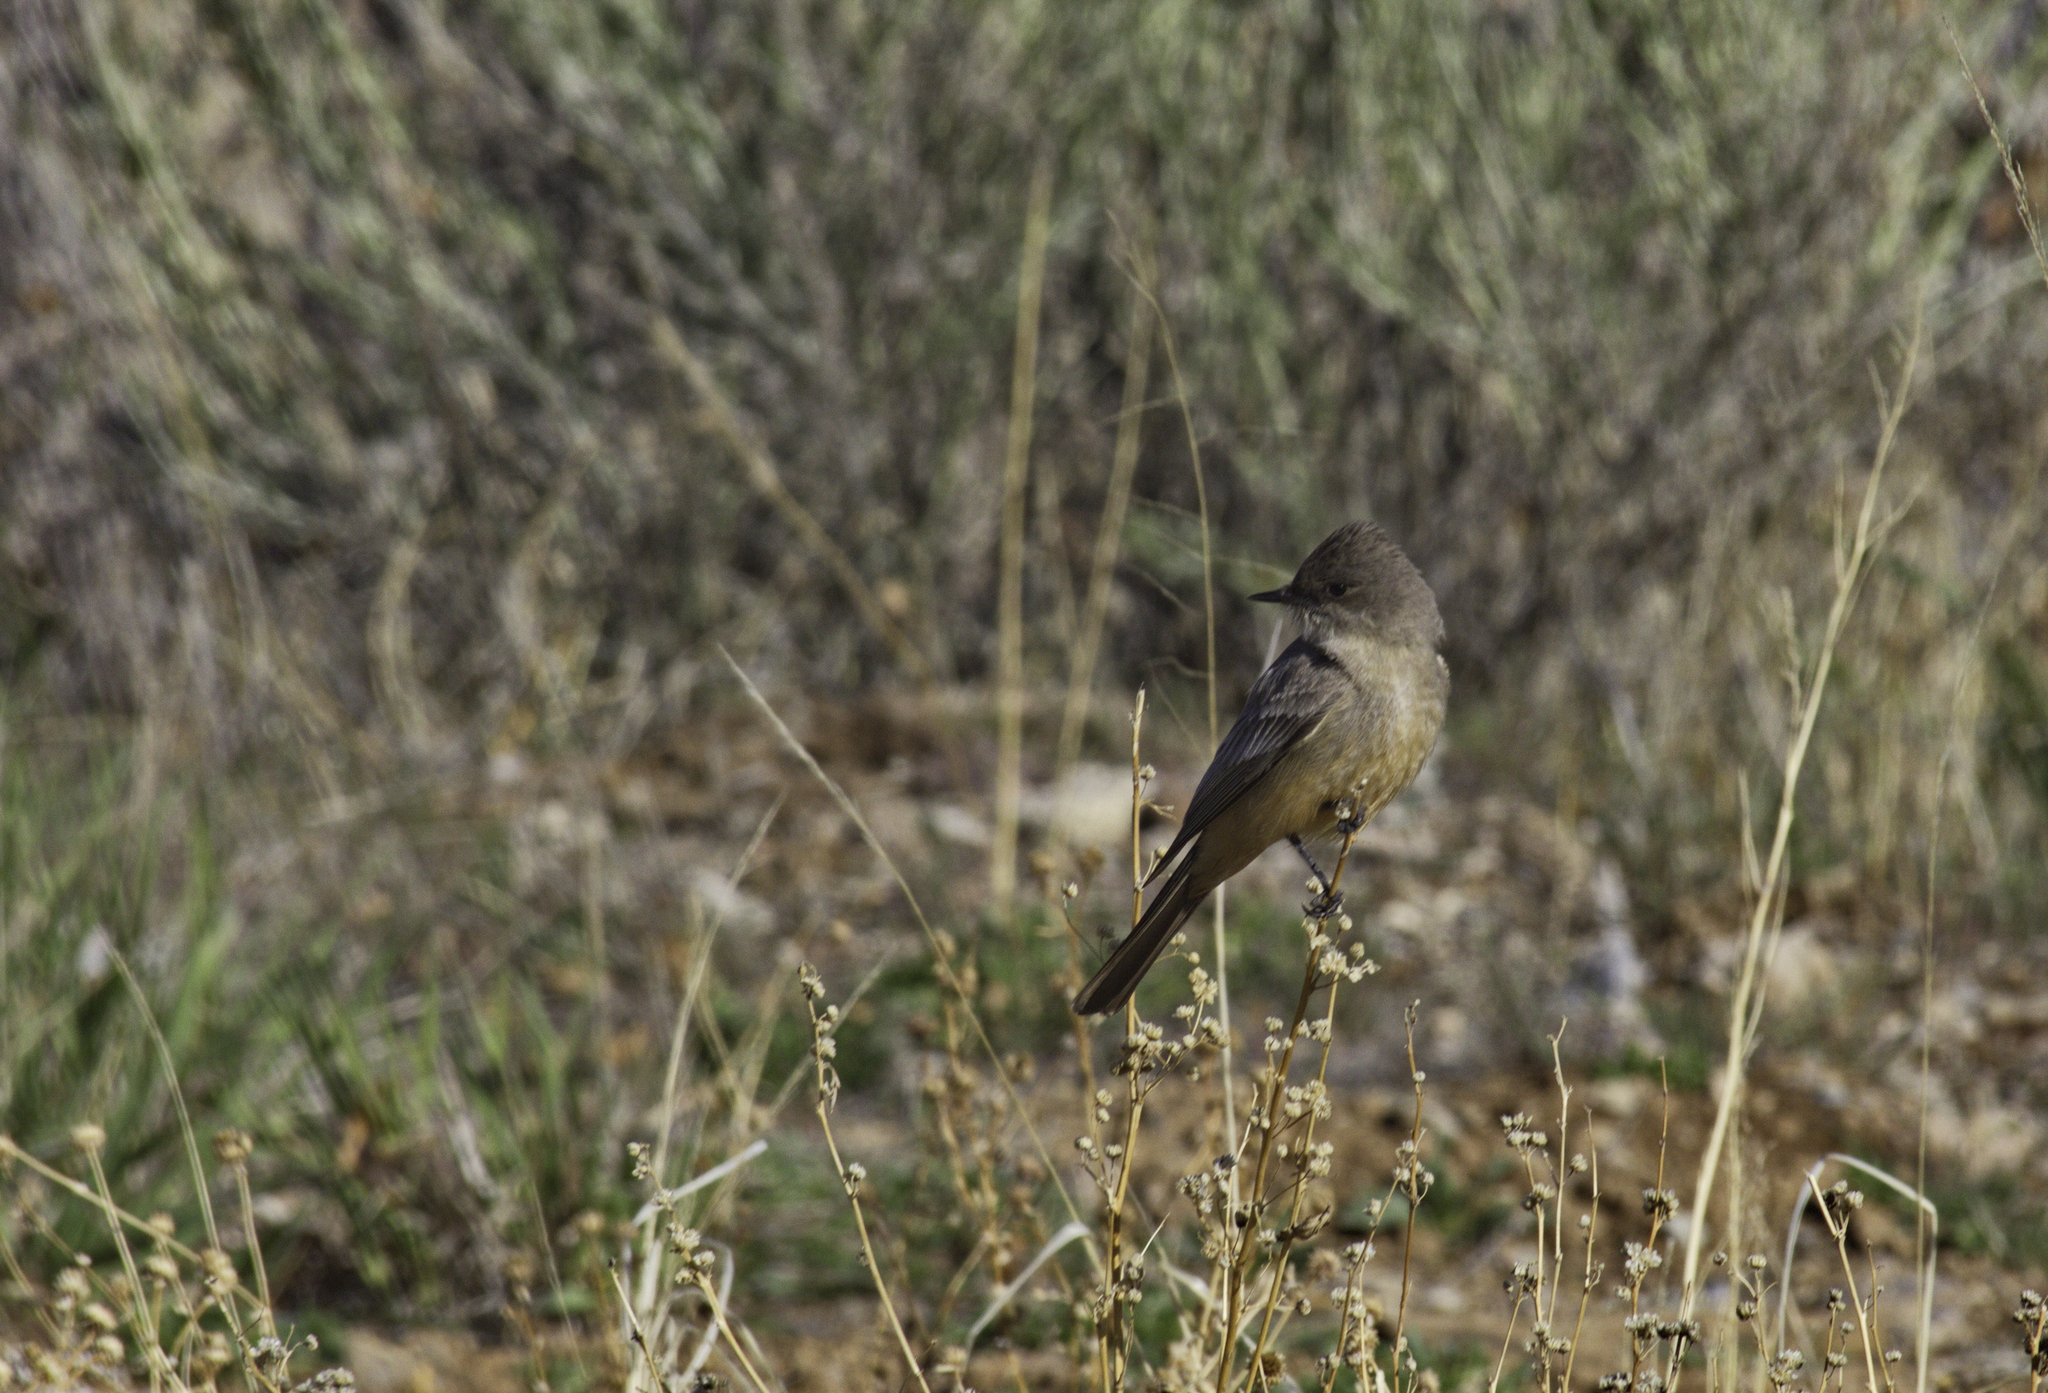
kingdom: Animalia
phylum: Chordata
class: Aves
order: Passeriformes
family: Tyrannidae
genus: Sayornis
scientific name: Sayornis saya
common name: Say's phoebe
